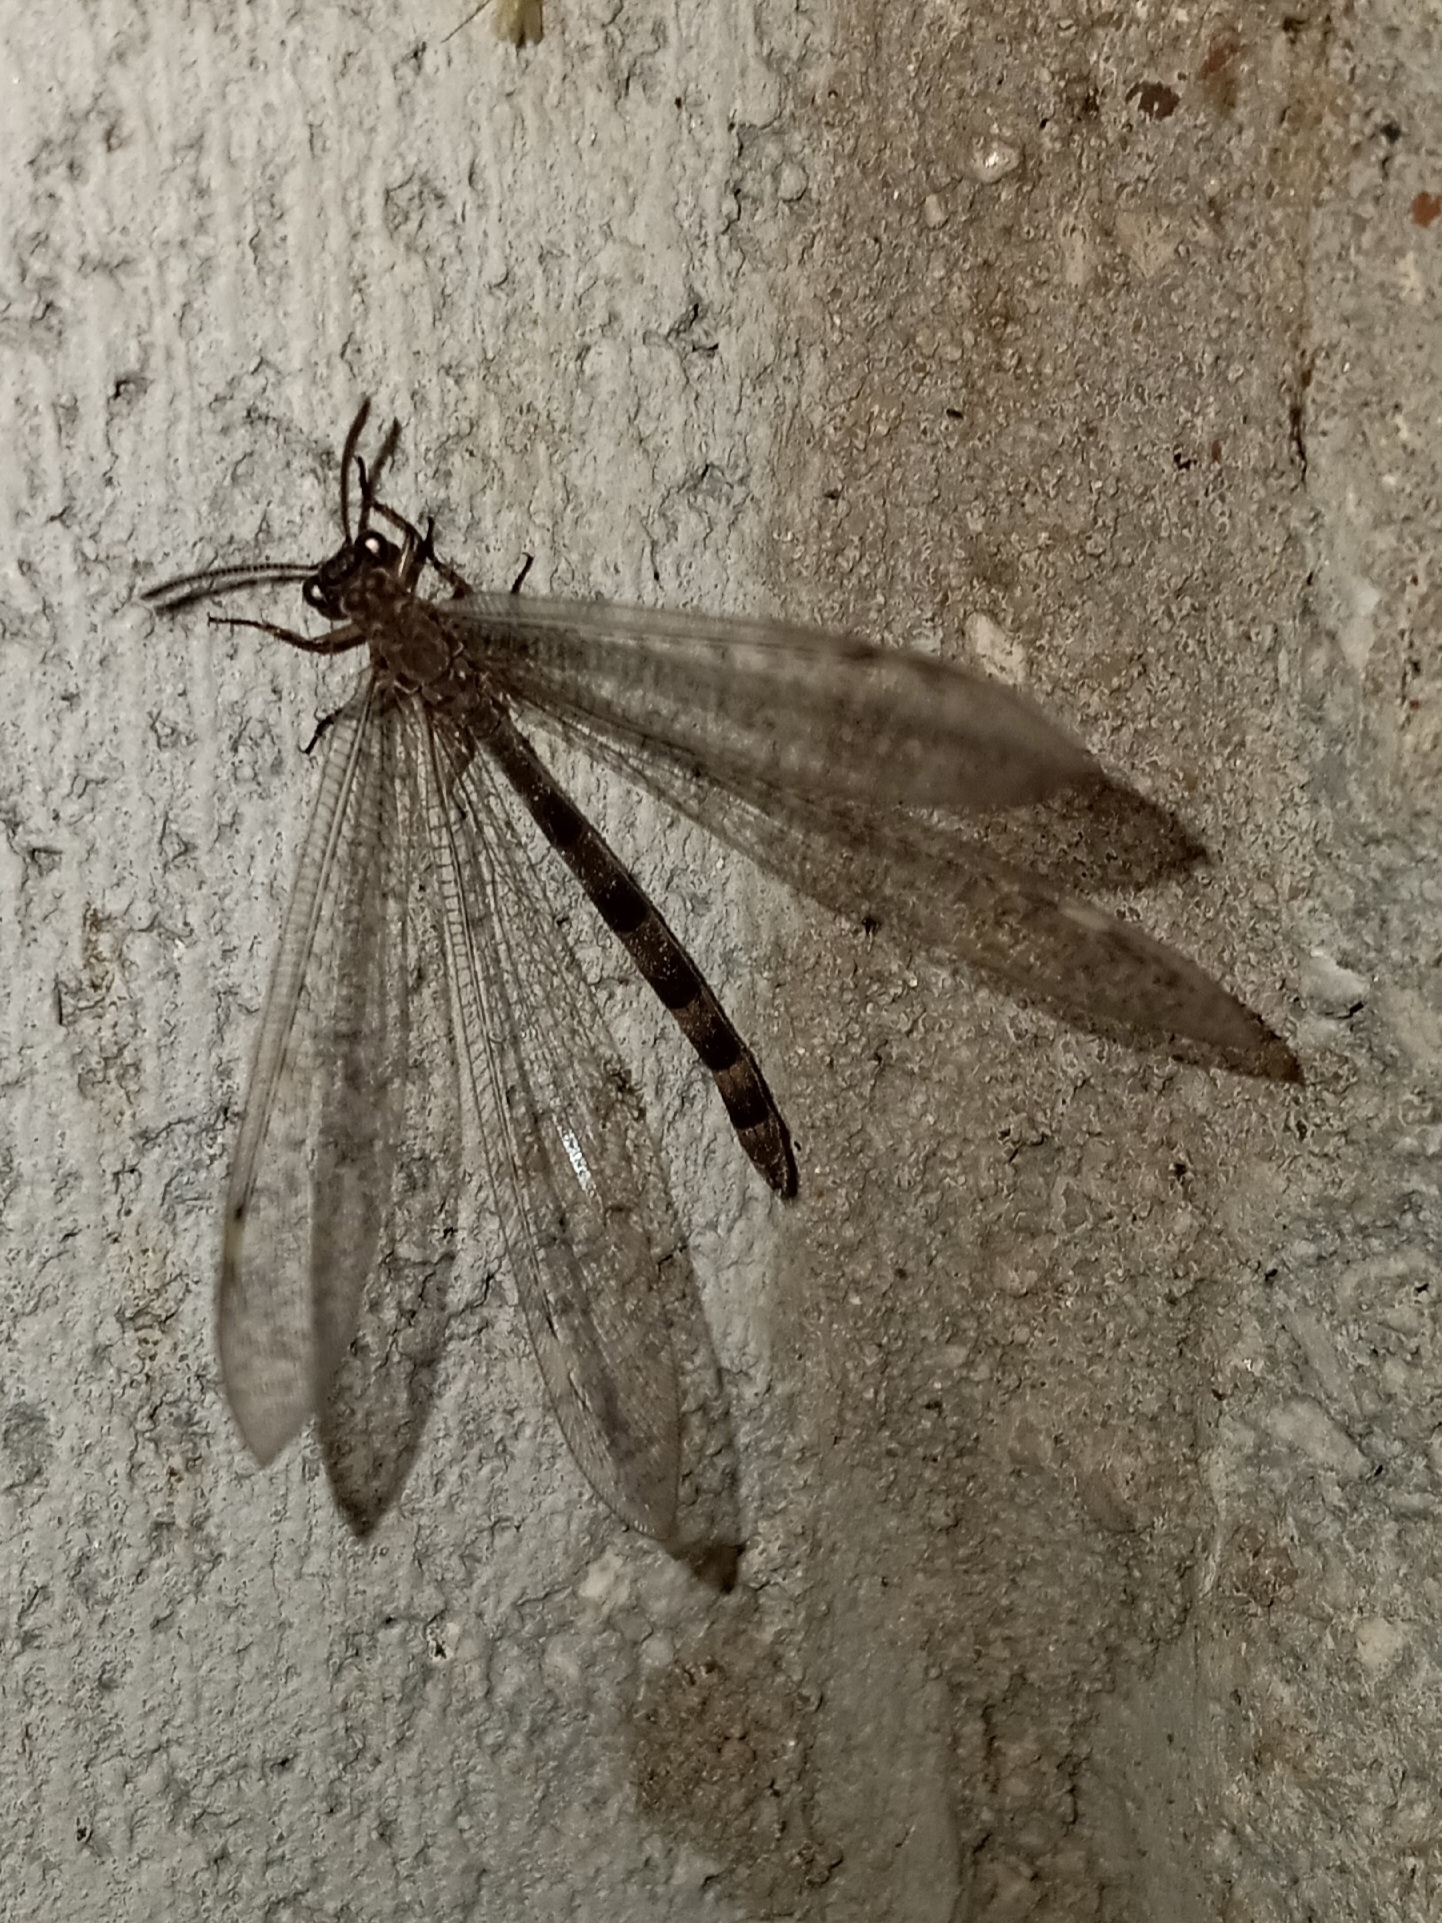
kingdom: Animalia
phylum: Arthropoda
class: Insecta
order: Neuroptera
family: Myrmeleontidae
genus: Myrmeleon
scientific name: Myrmeleon immaculatus
